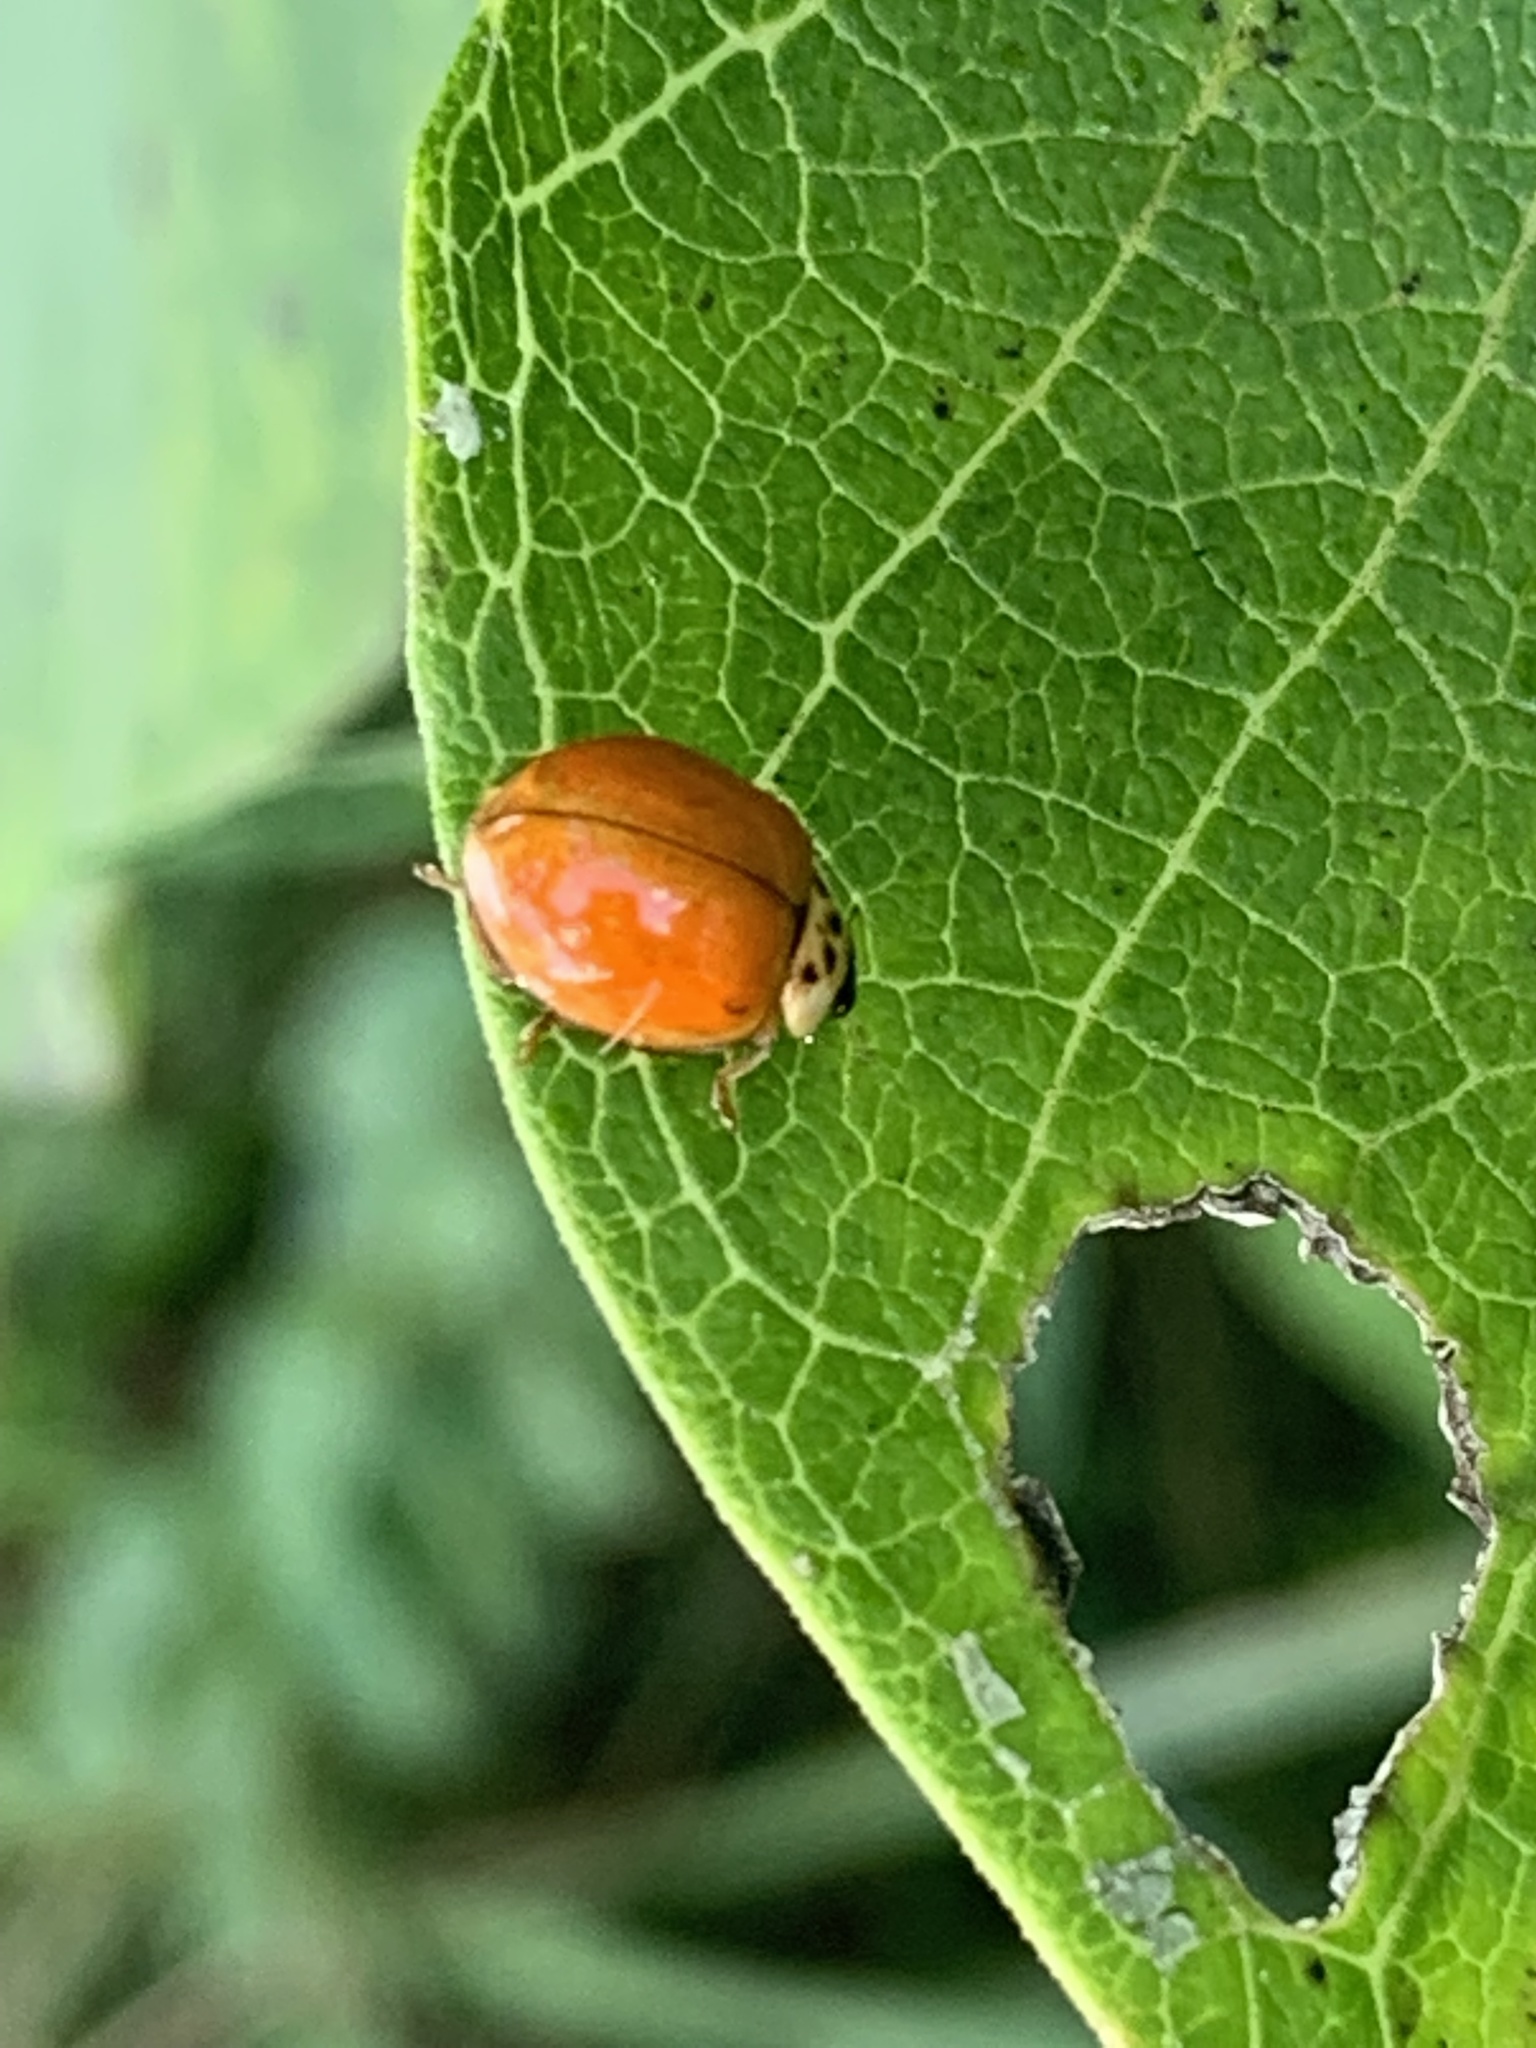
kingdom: Animalia
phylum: Arthropoda
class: Insecta
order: Coleoptera
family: Coccinellidae
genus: Harmonia
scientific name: Harmonia axyridis
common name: Harlequin ladybird
